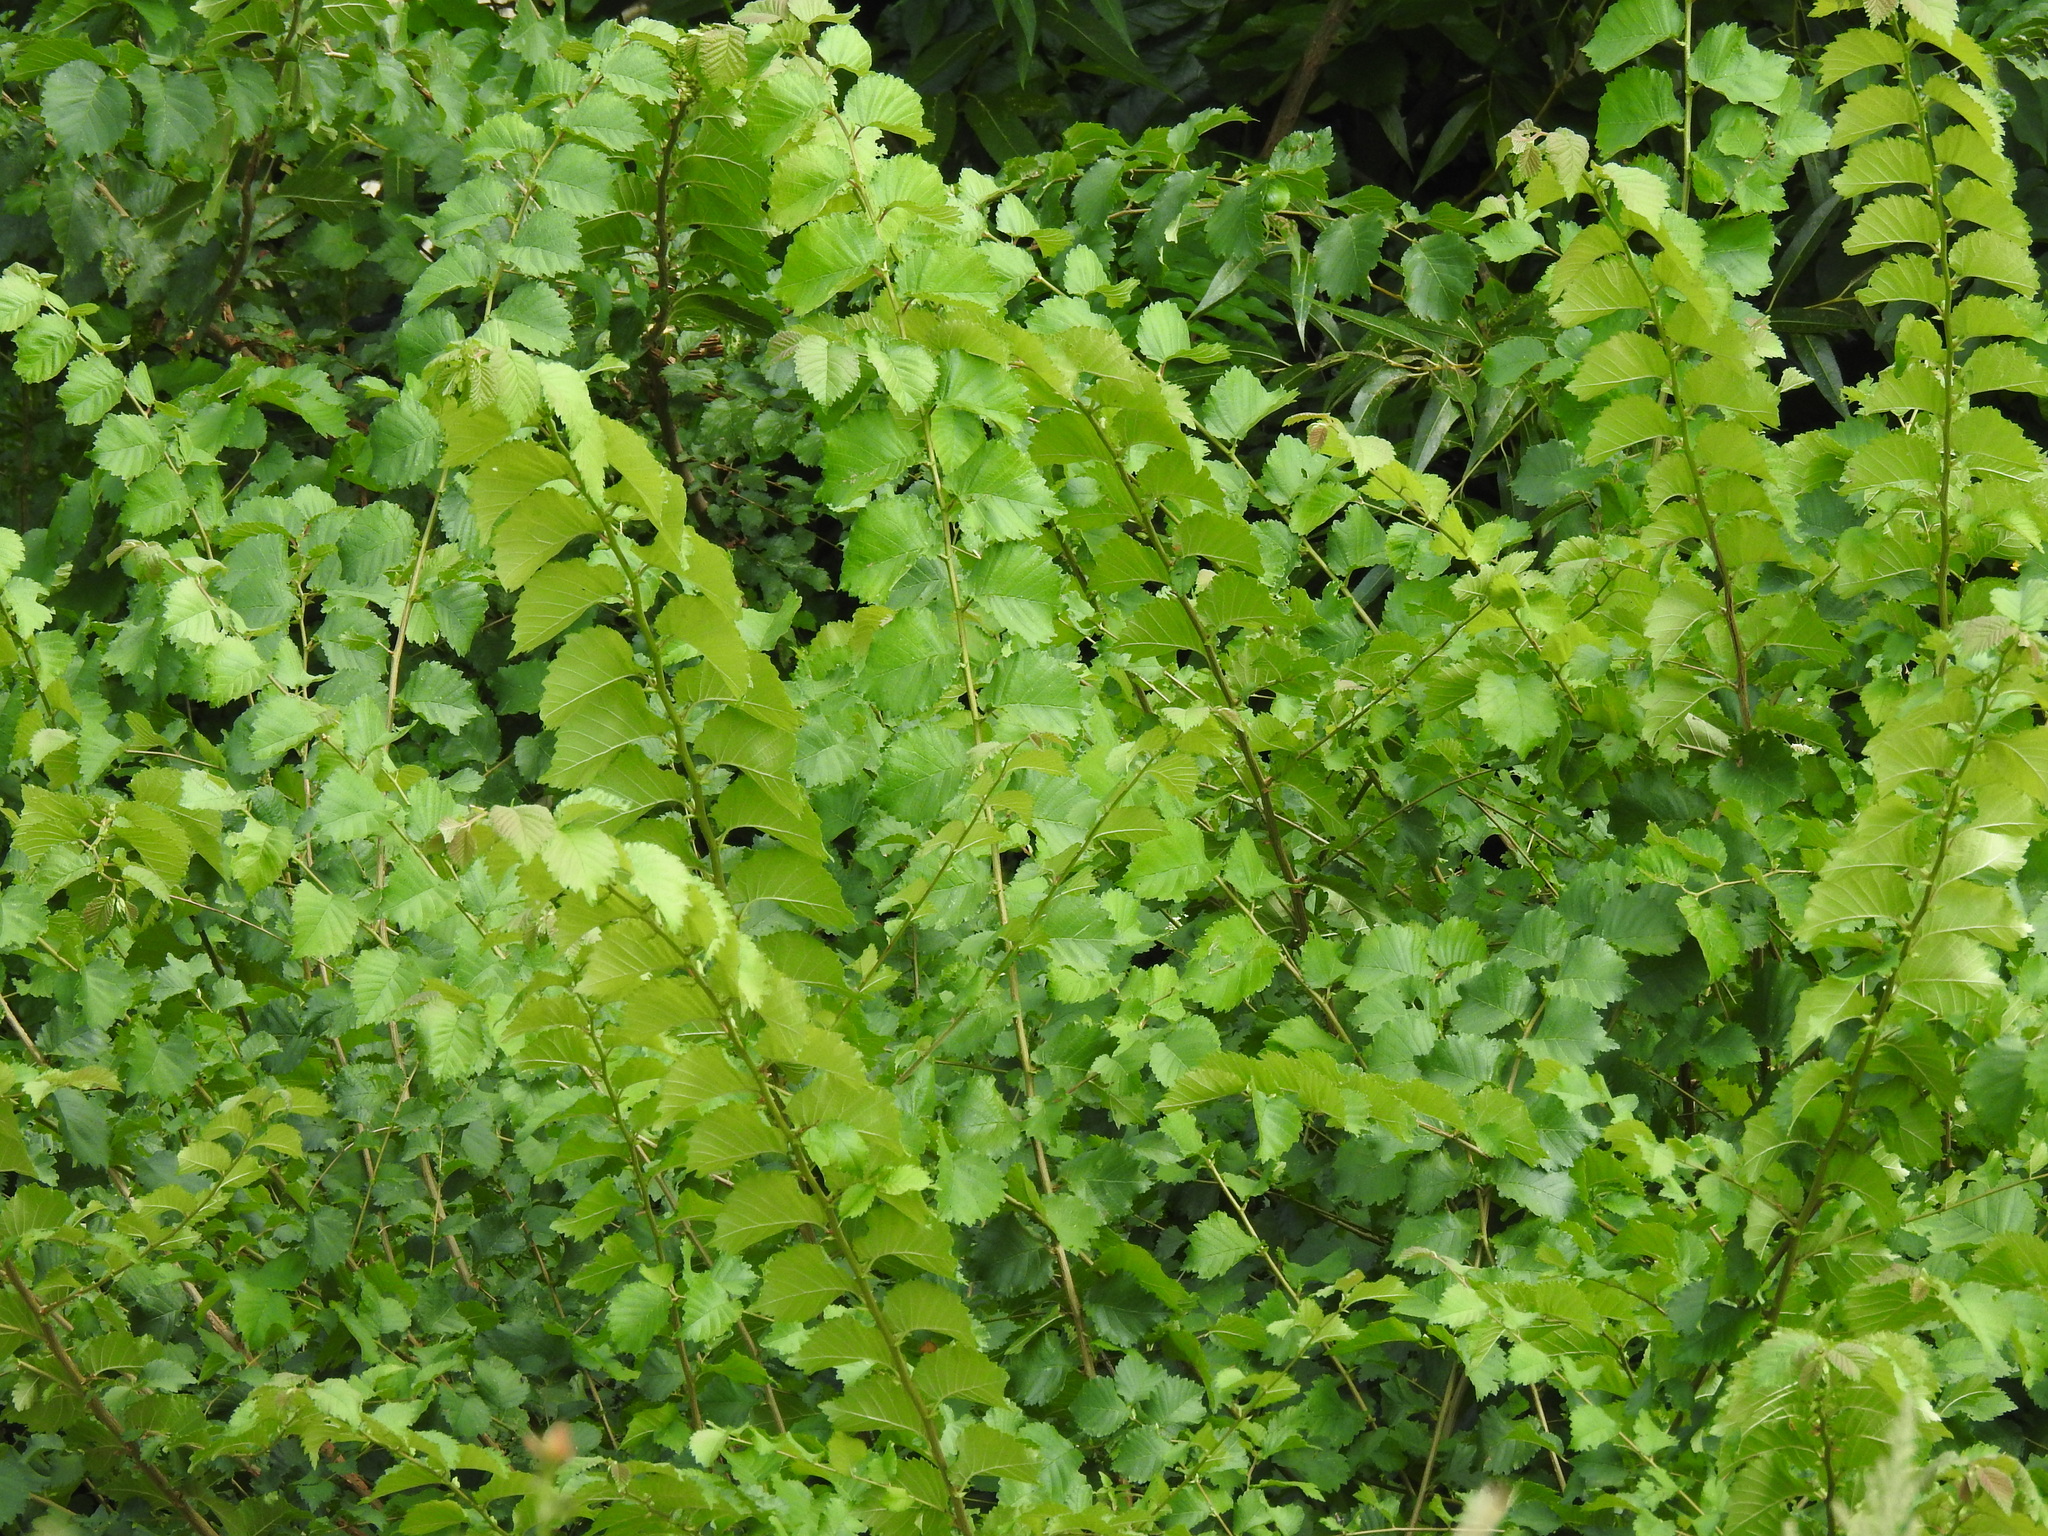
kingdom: Plantae
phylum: Tracheophyta
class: Magnoliopsida
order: Rosales
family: Ulmaceae
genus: Ulmus
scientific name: Ulmus minor
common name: Small-leaved elm
